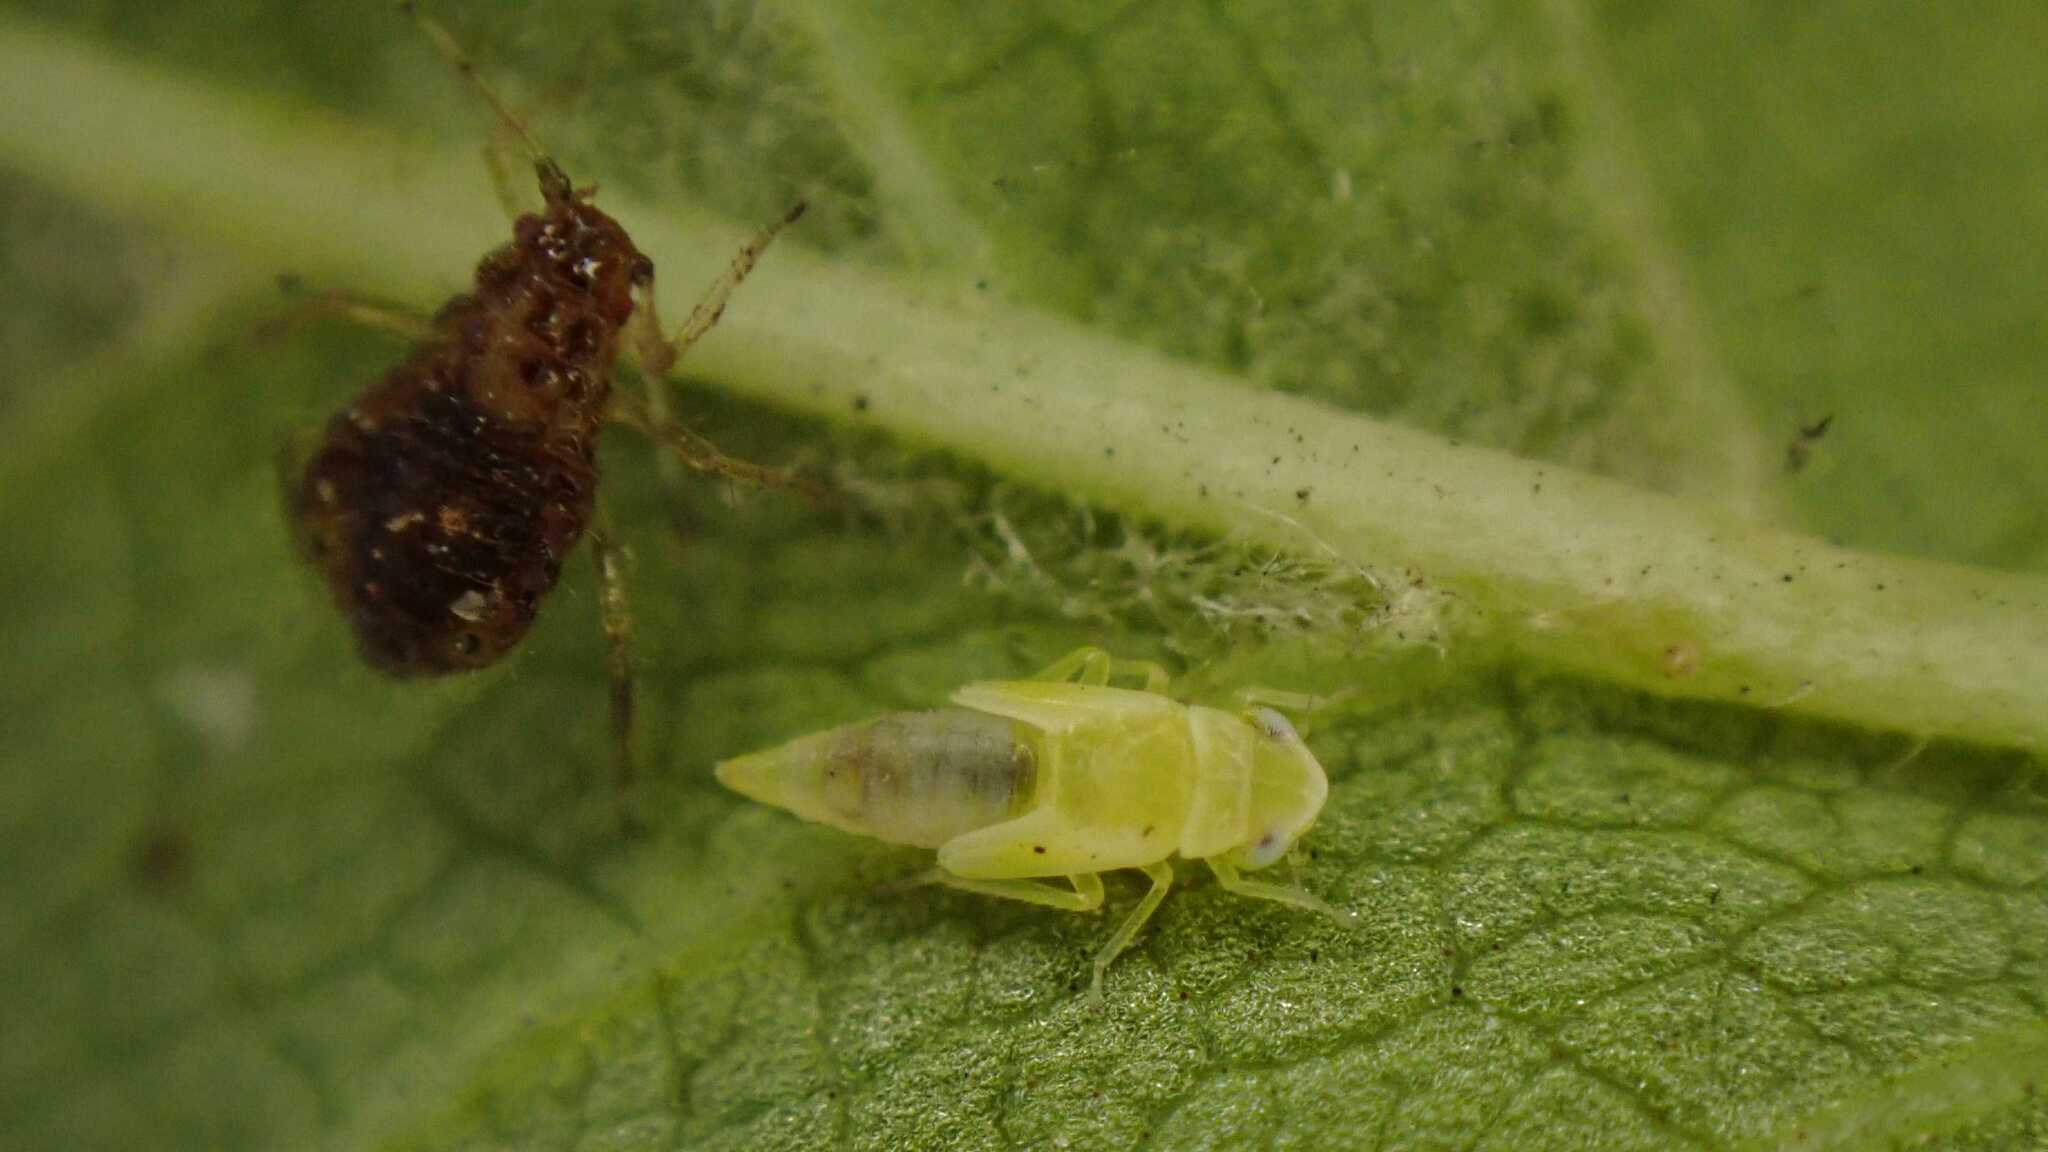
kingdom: Animalia
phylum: Arthropoda
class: Insecta
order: Hemiptera
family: Cicadellidae
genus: Tautoneura
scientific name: Tautoneura polymitusa
